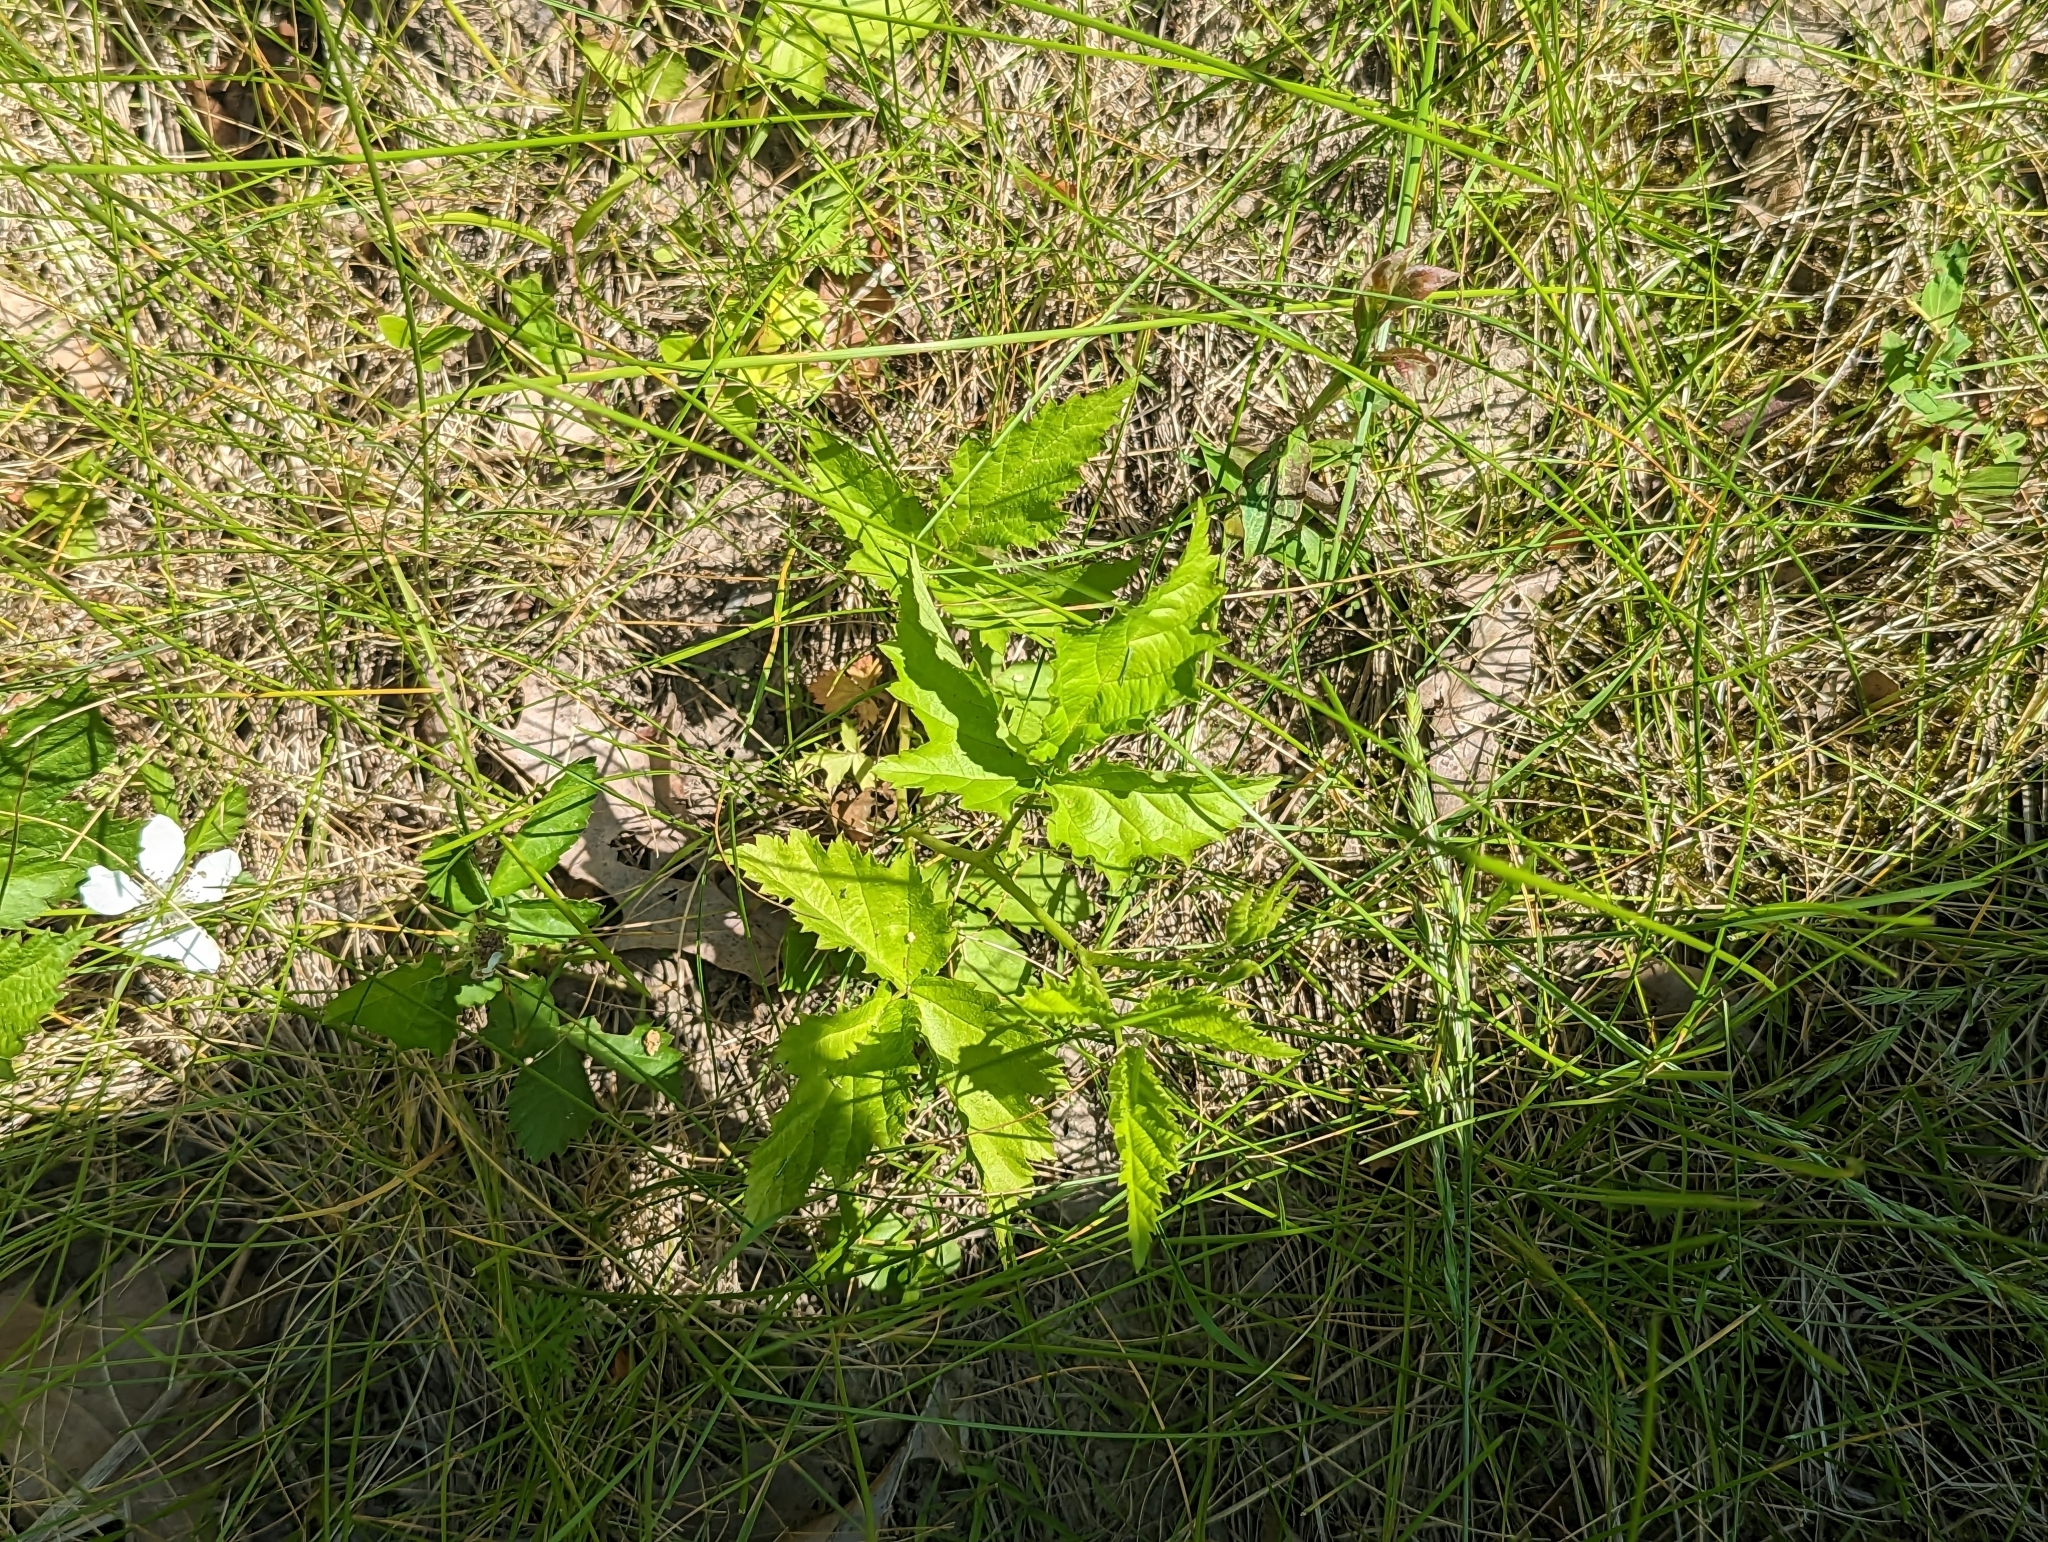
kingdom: Plantae
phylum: Tracheophyta
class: Magnoliopsida
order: Rosales
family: Rosaceae
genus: Rubus
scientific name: Rubus flagellaris
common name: American dewberry
